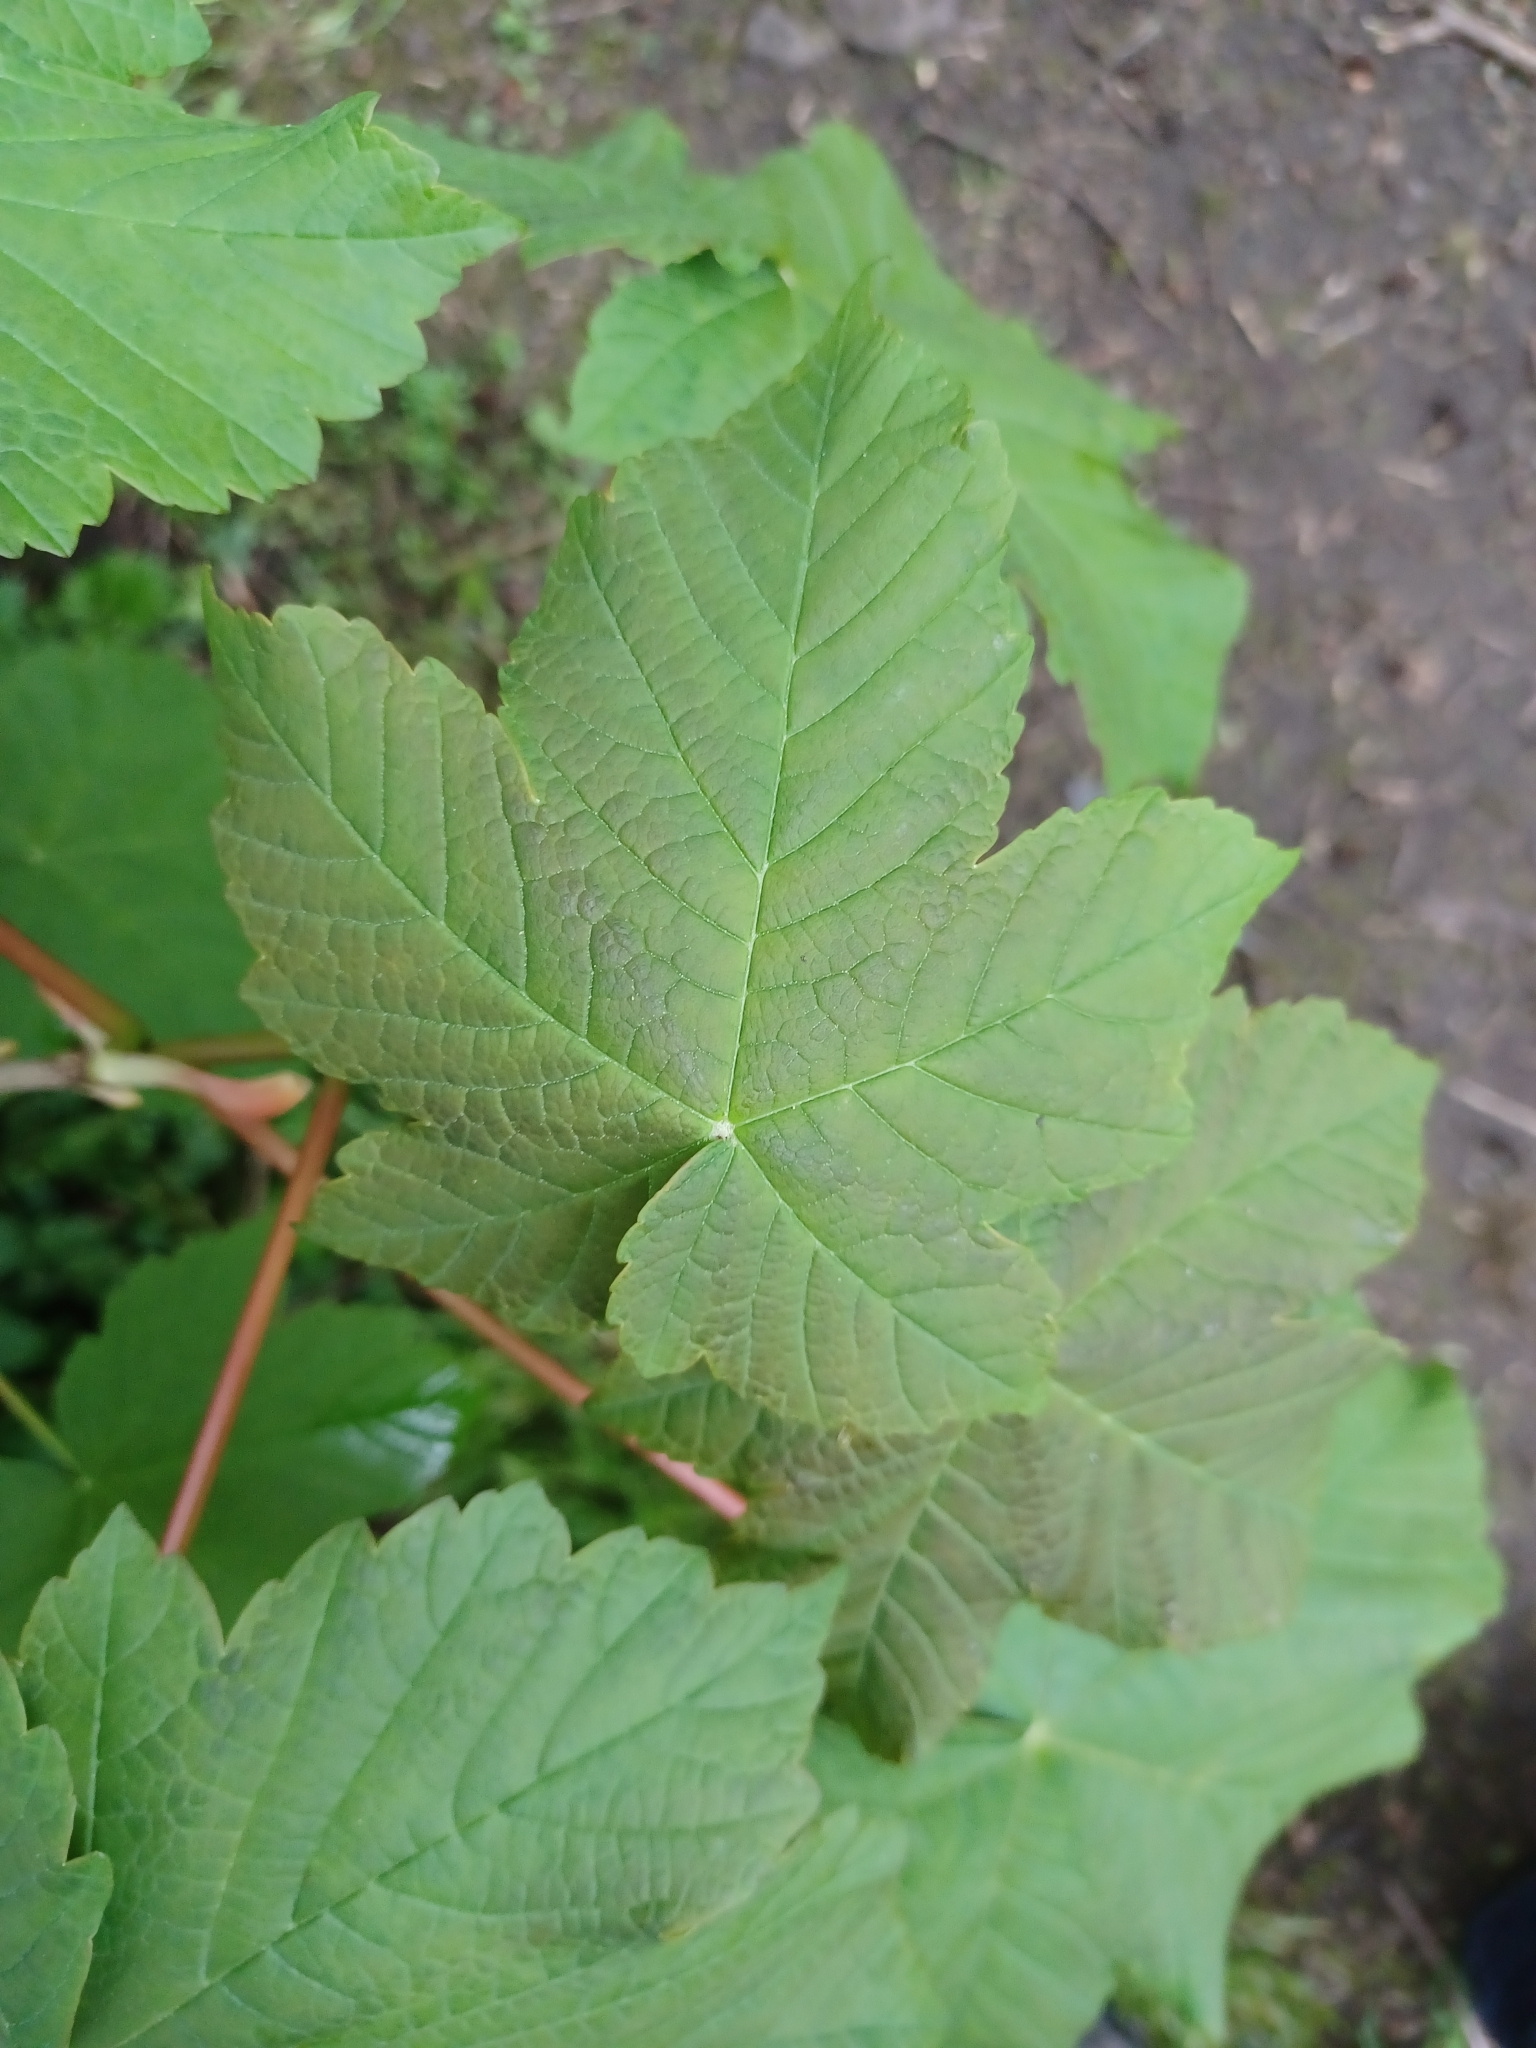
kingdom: Plantae
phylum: Tracheophyta
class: Magnoliopsida
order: Sapindales
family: Sapindaceae
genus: Acer
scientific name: Acer pseudoplatanus
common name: Sycamore
